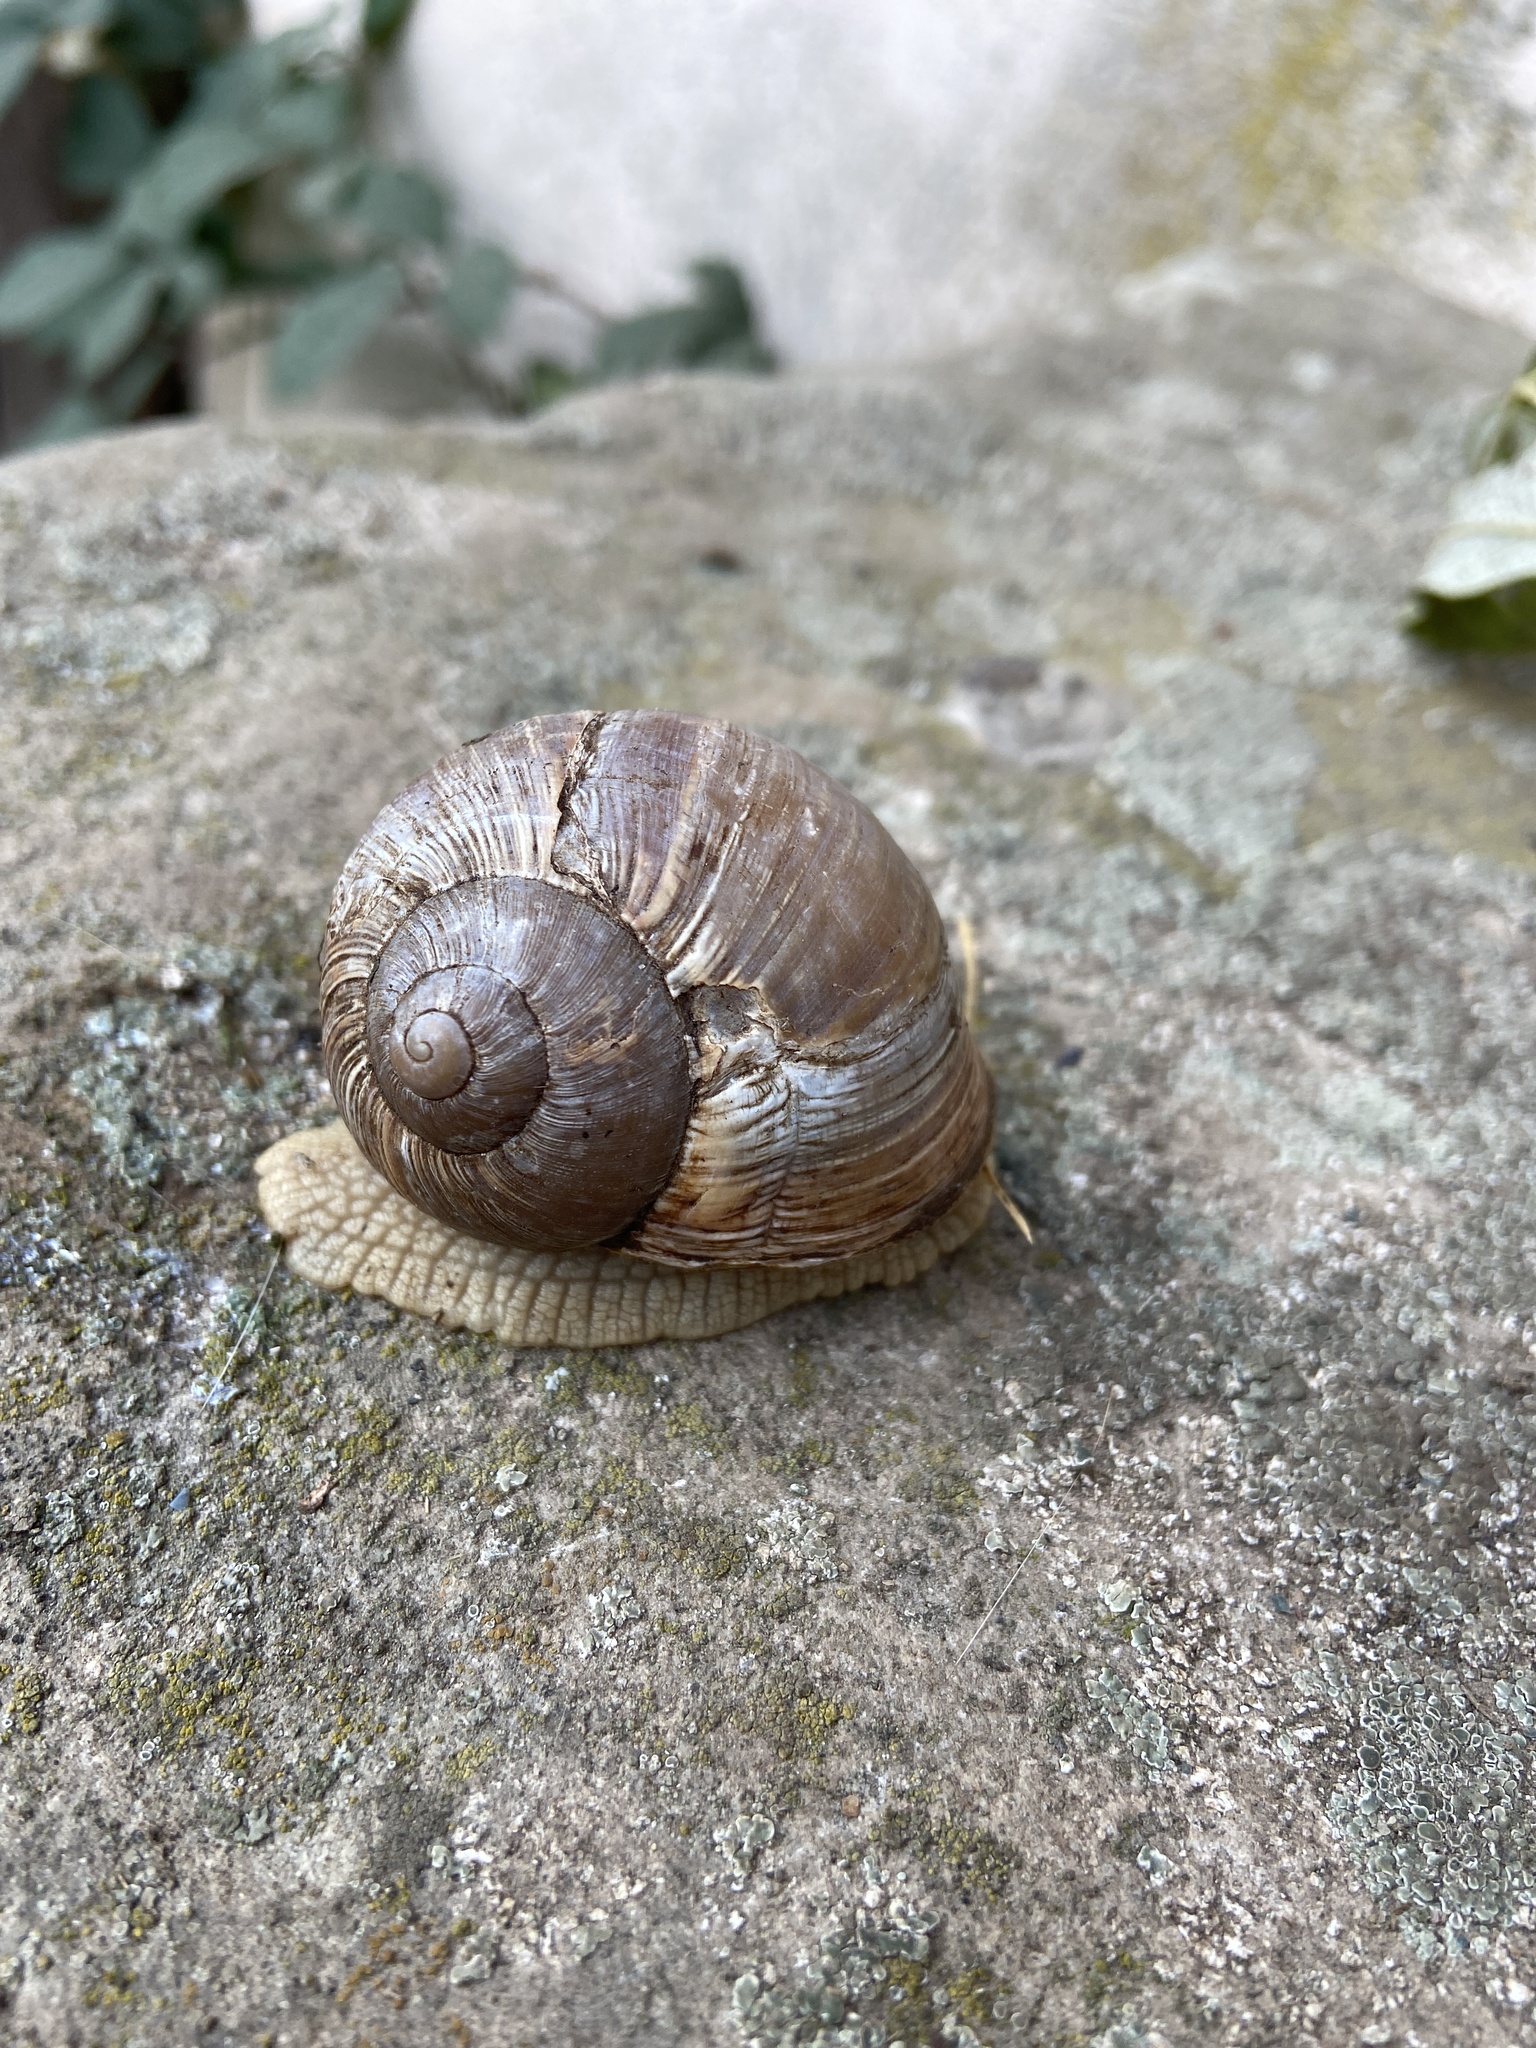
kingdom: Animalia
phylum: Mollusca
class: Gastropoda
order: Stylommatophora
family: Helicidae
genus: Helix
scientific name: Helix pomatia
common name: Roman snail
